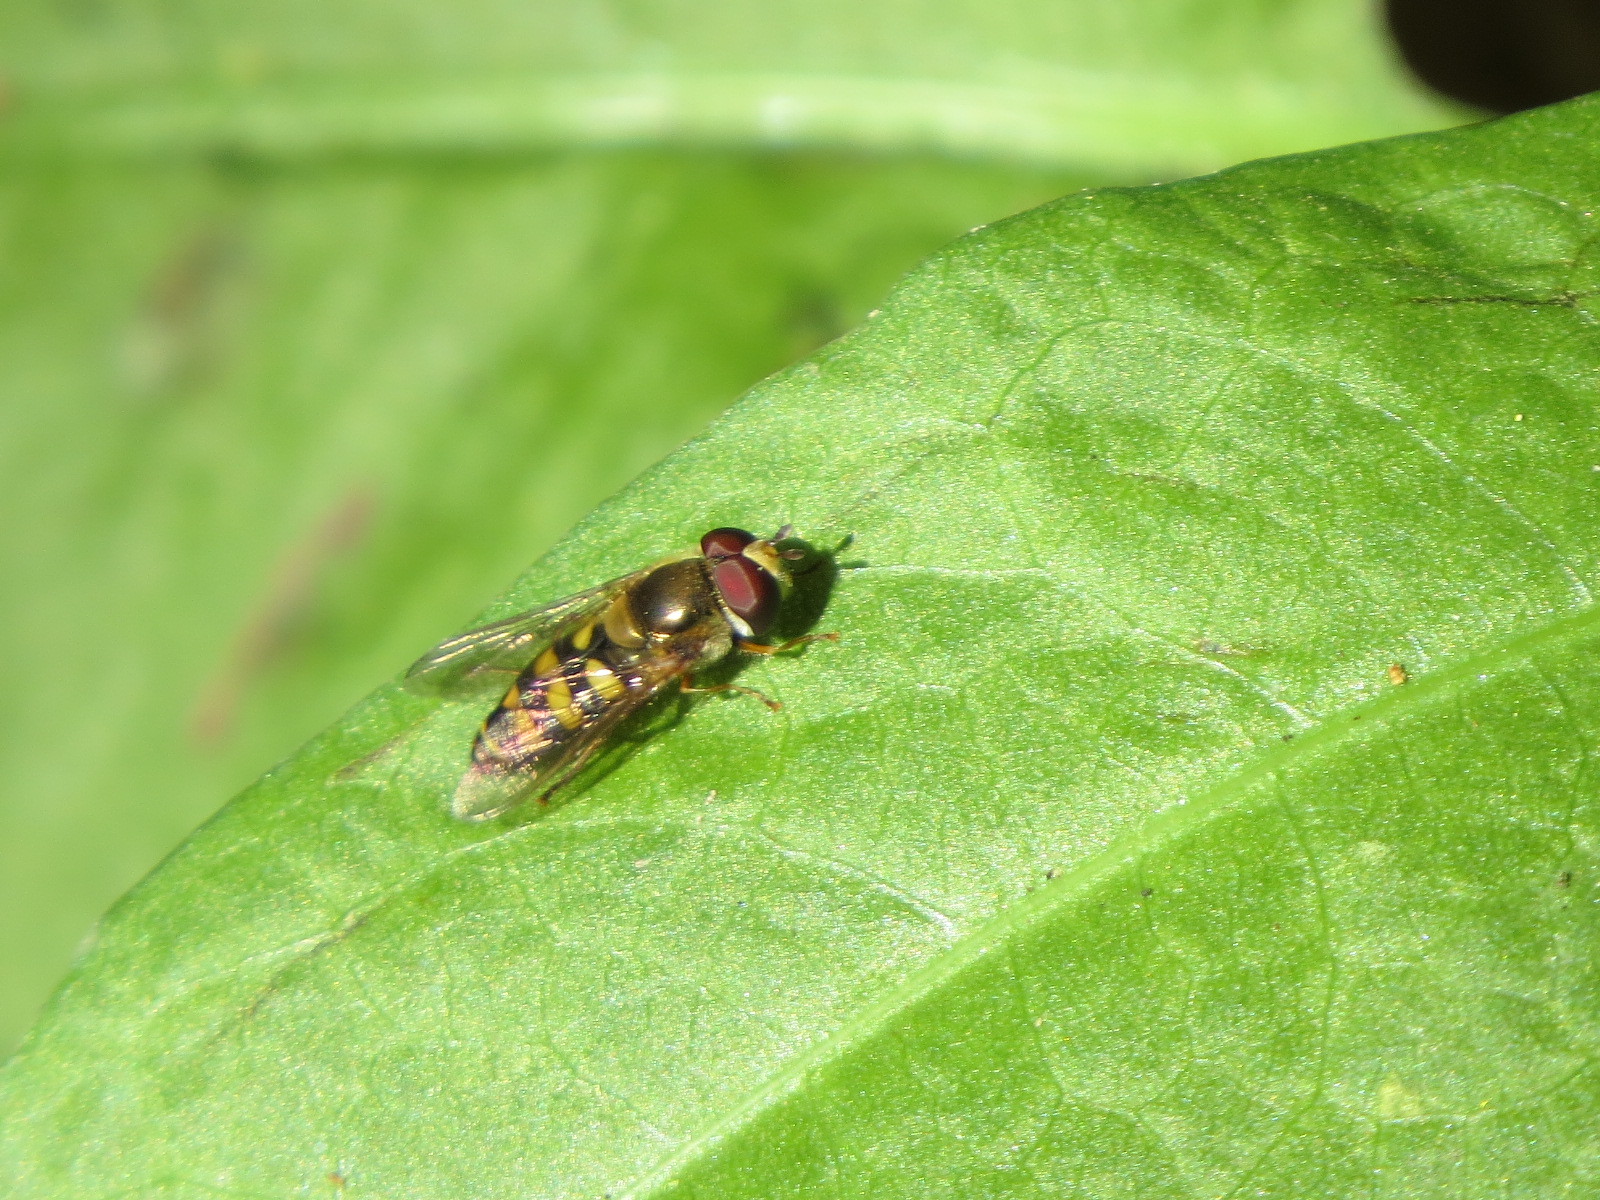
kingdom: Animalia
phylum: Arthropoda
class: Insecta
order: Diptera
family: Syrphidae
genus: Eupeodes
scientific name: Eupeodes fumipennis
